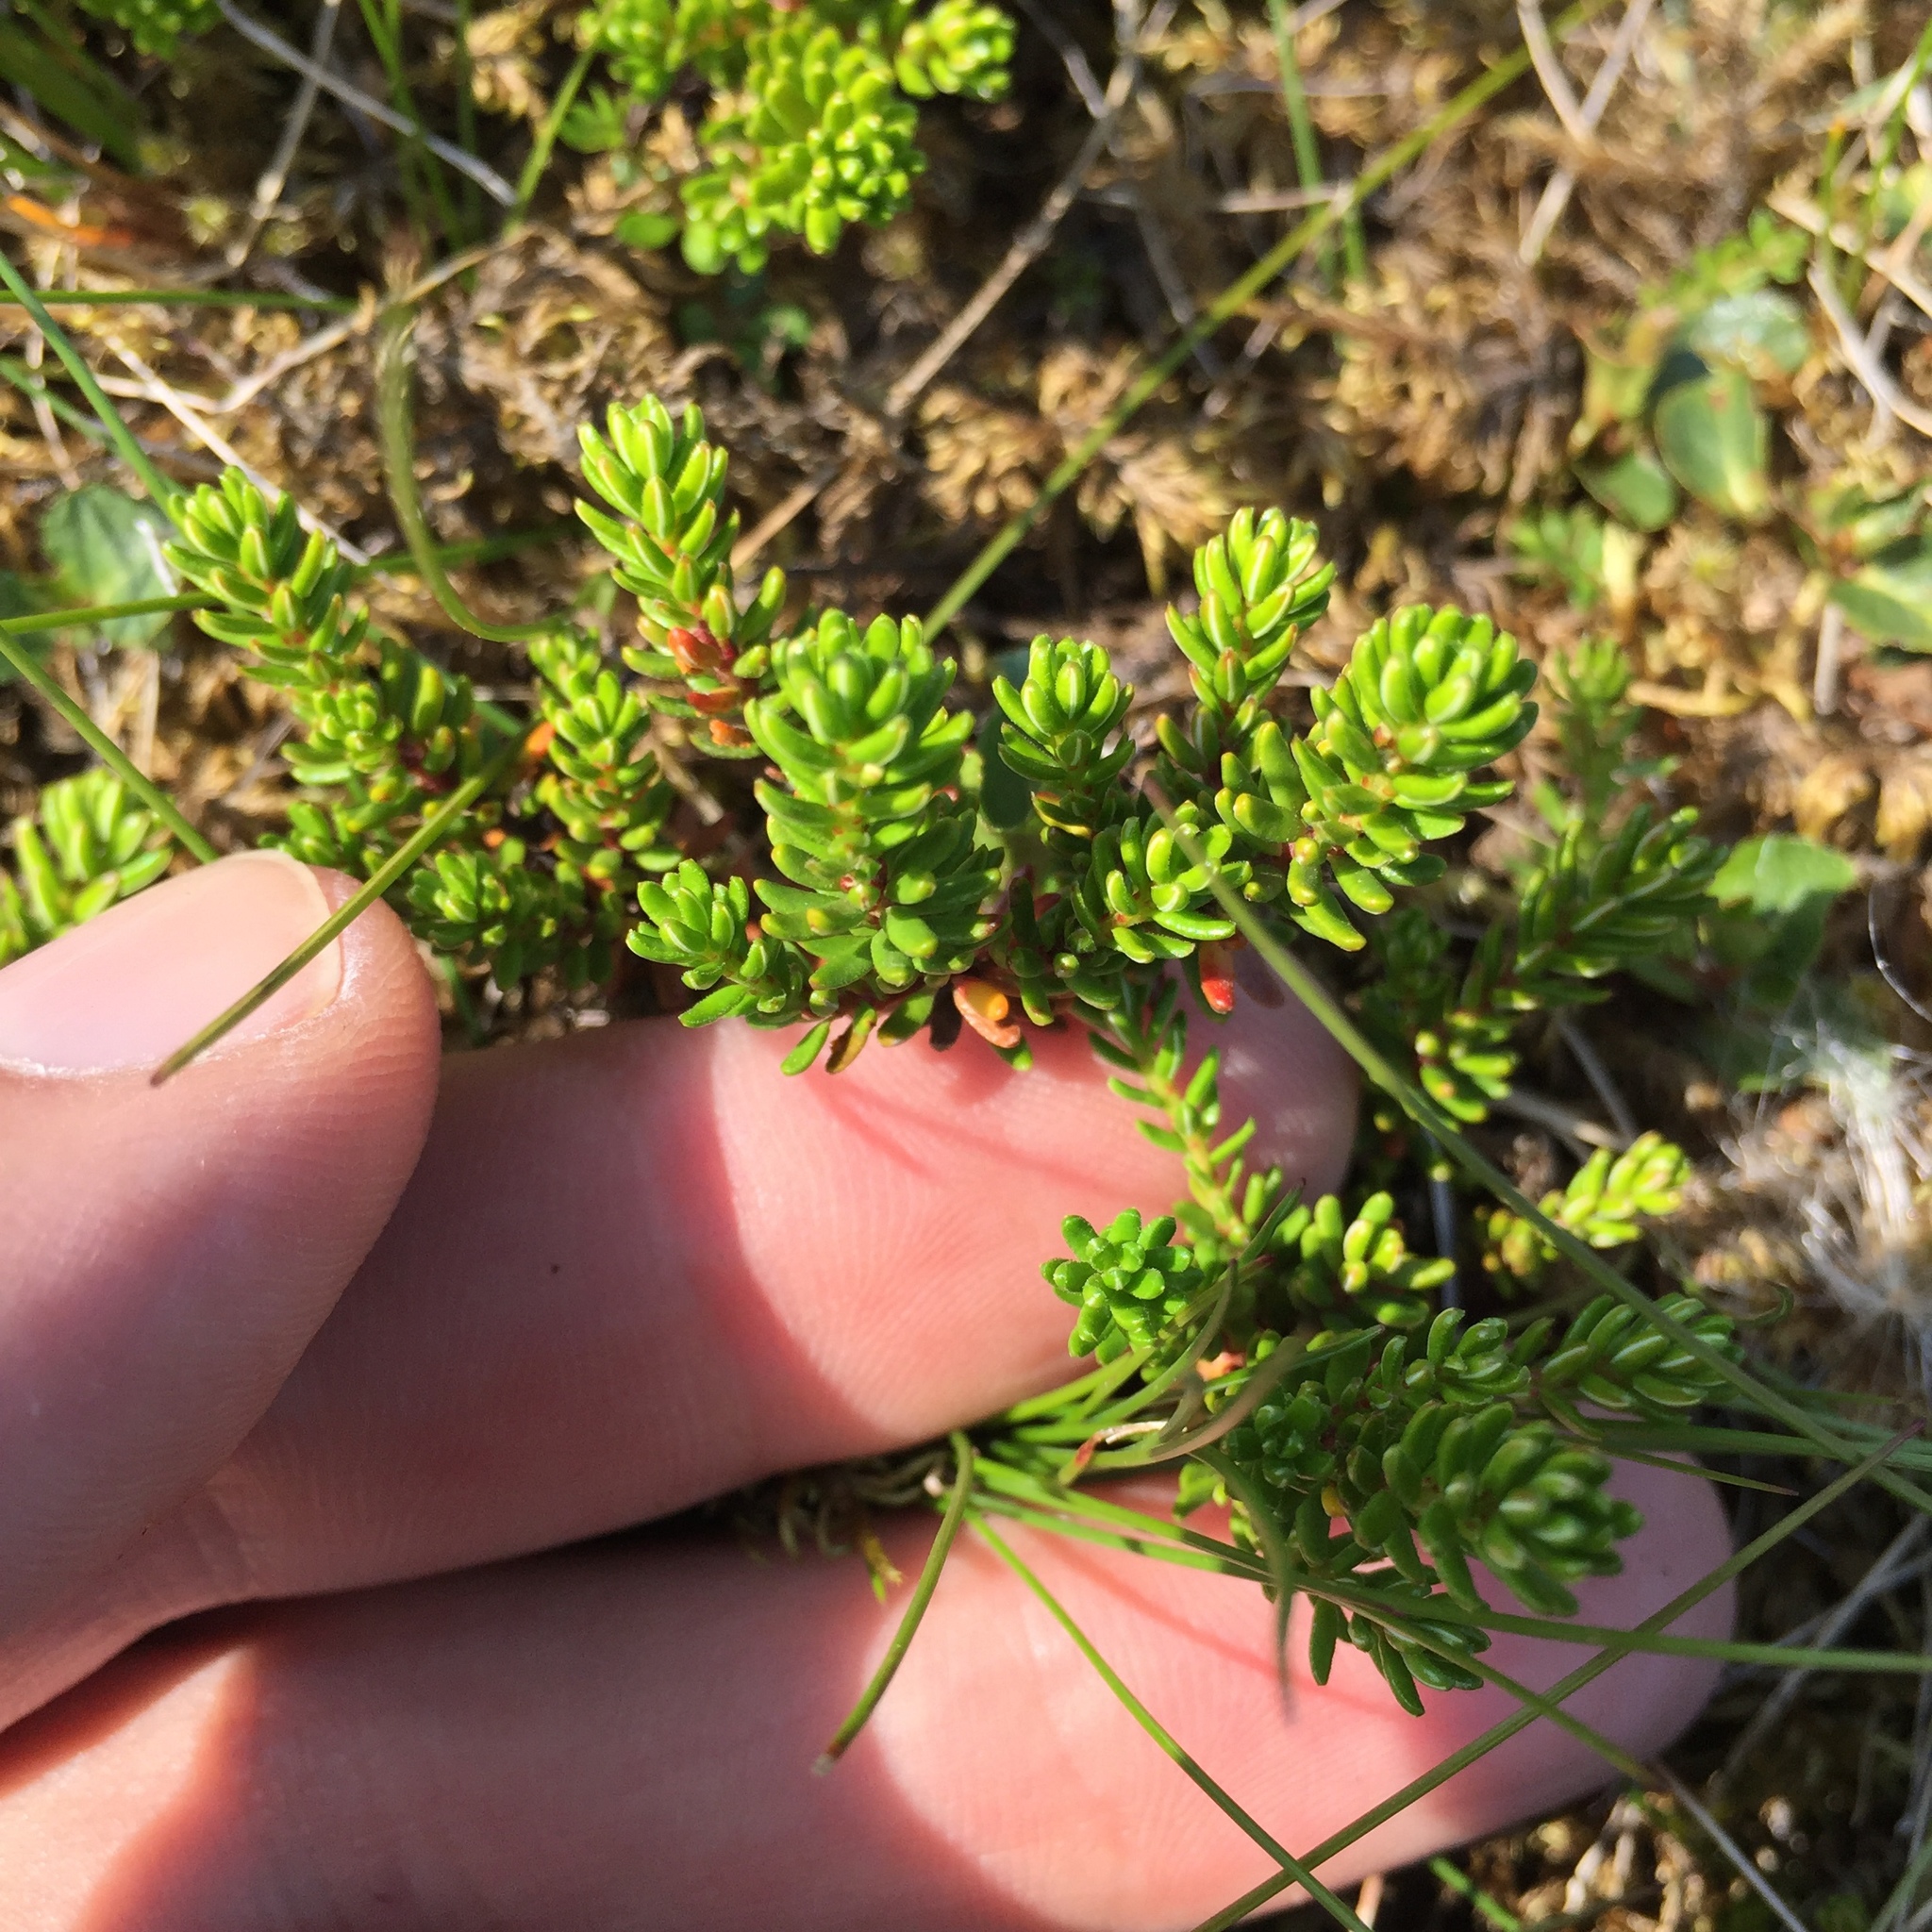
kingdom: Plantae
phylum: Tracheophyta
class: Magnoliopsida
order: Ericales
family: Ericaceae
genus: Empetrum
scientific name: Empetrum nigrum
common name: Black crowberry
